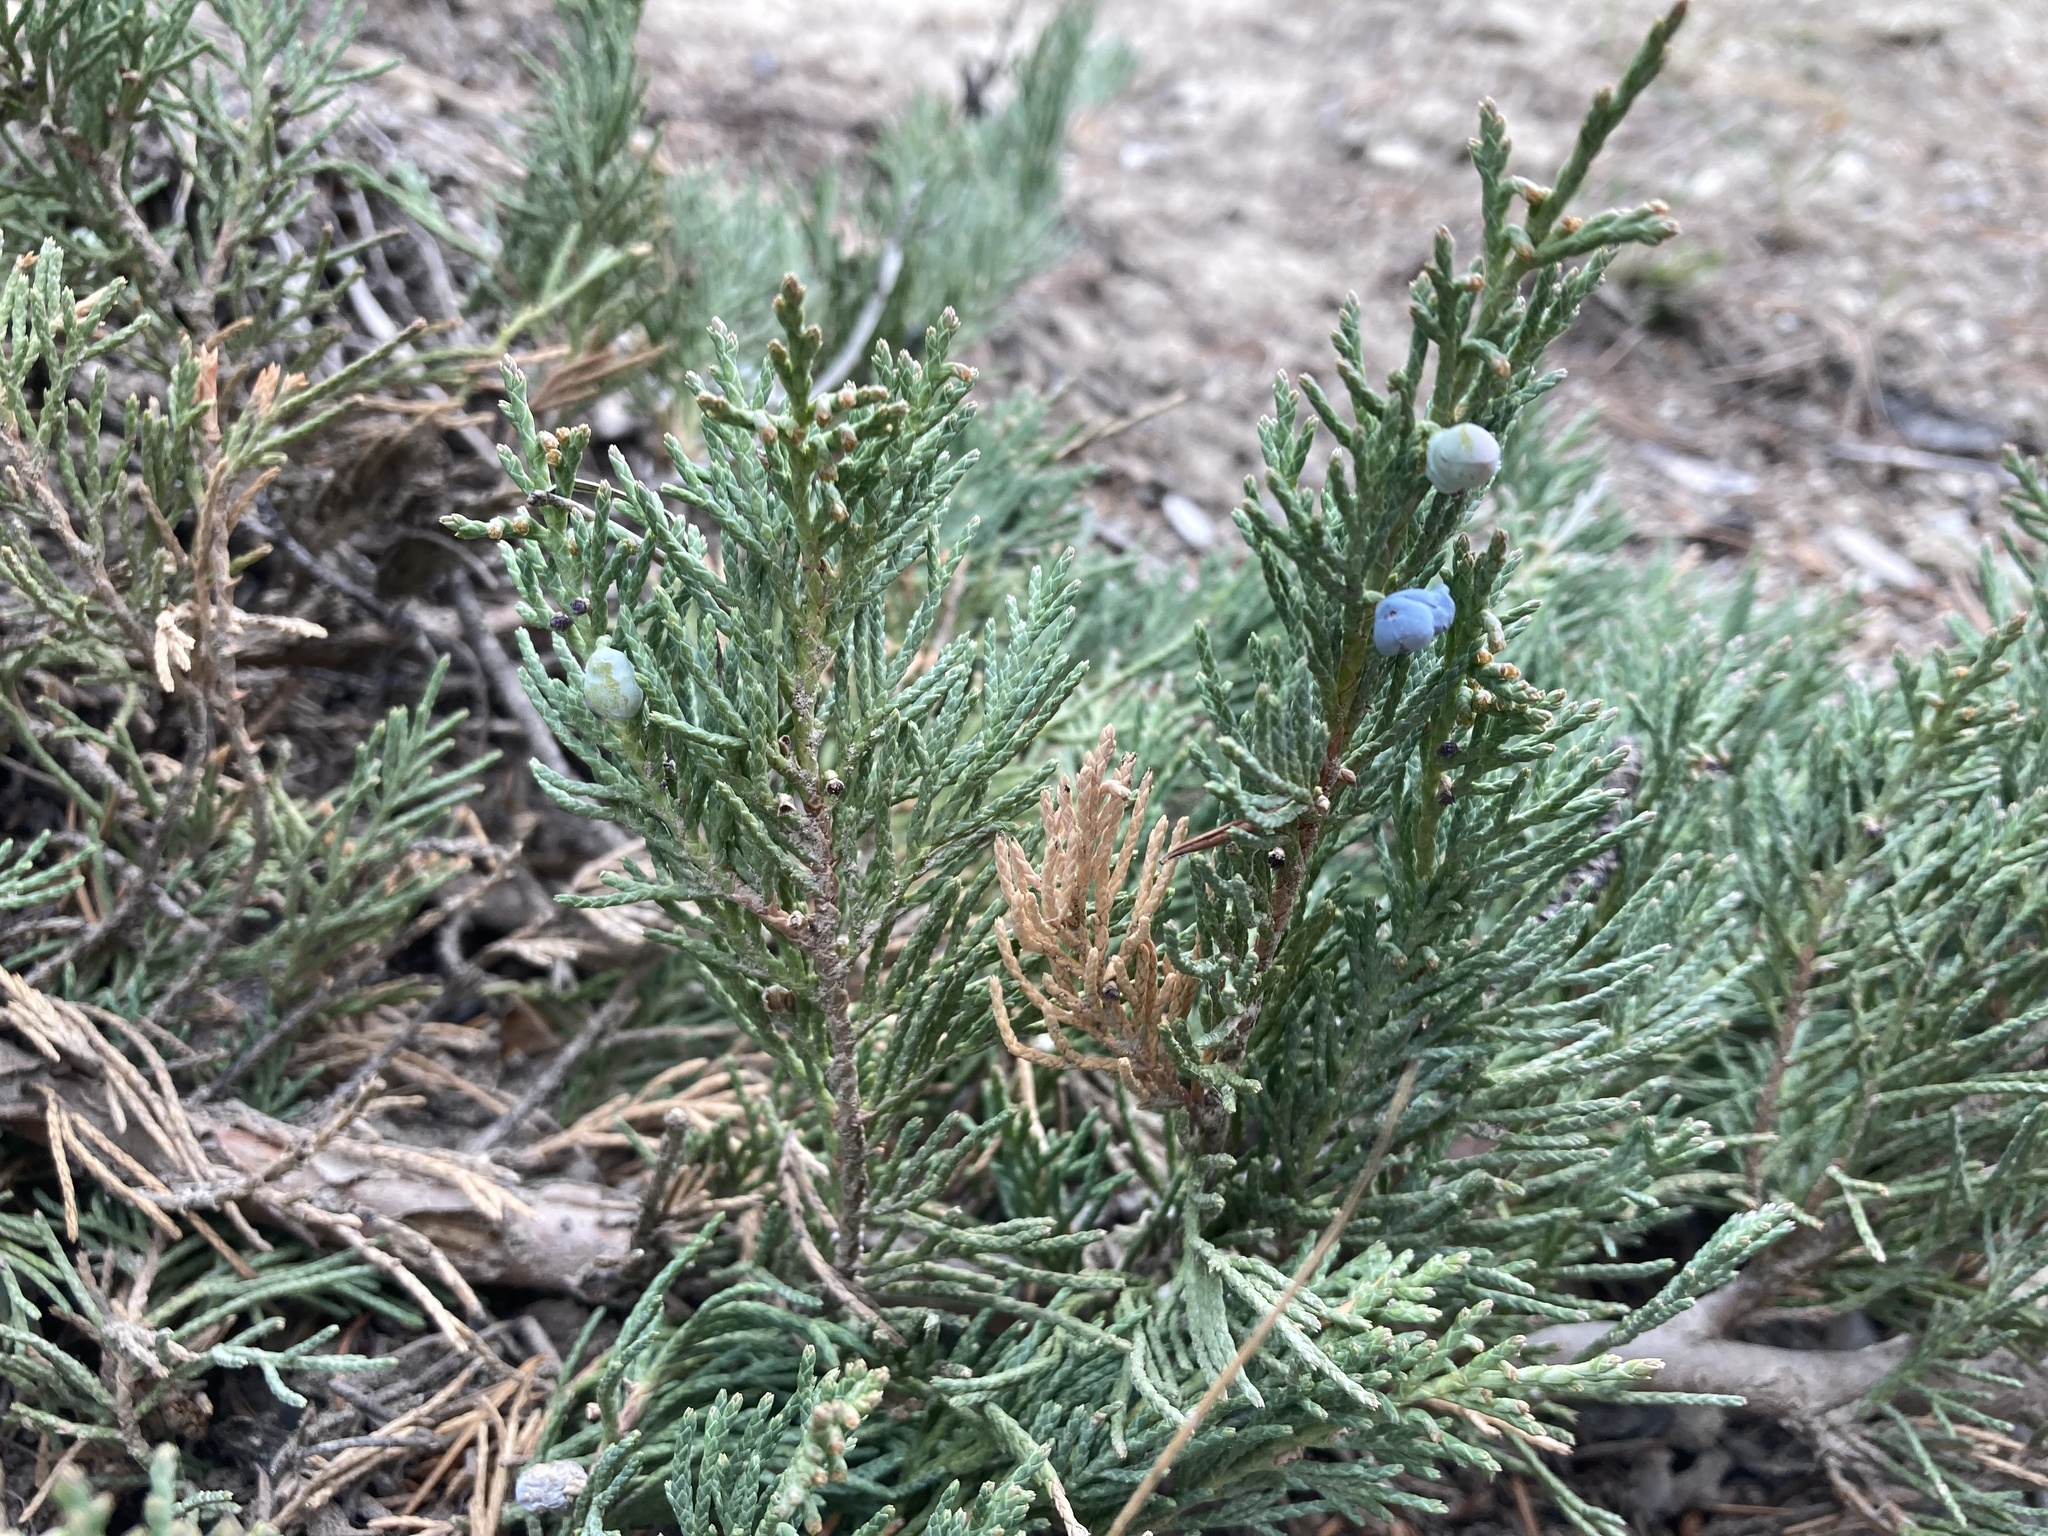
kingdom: Plantae
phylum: Tracheophyta
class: Pinopsida
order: Pinales
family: Cupressaceae
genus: Juniperus
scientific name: Juniperus horizontalis
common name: Creeping juniper
